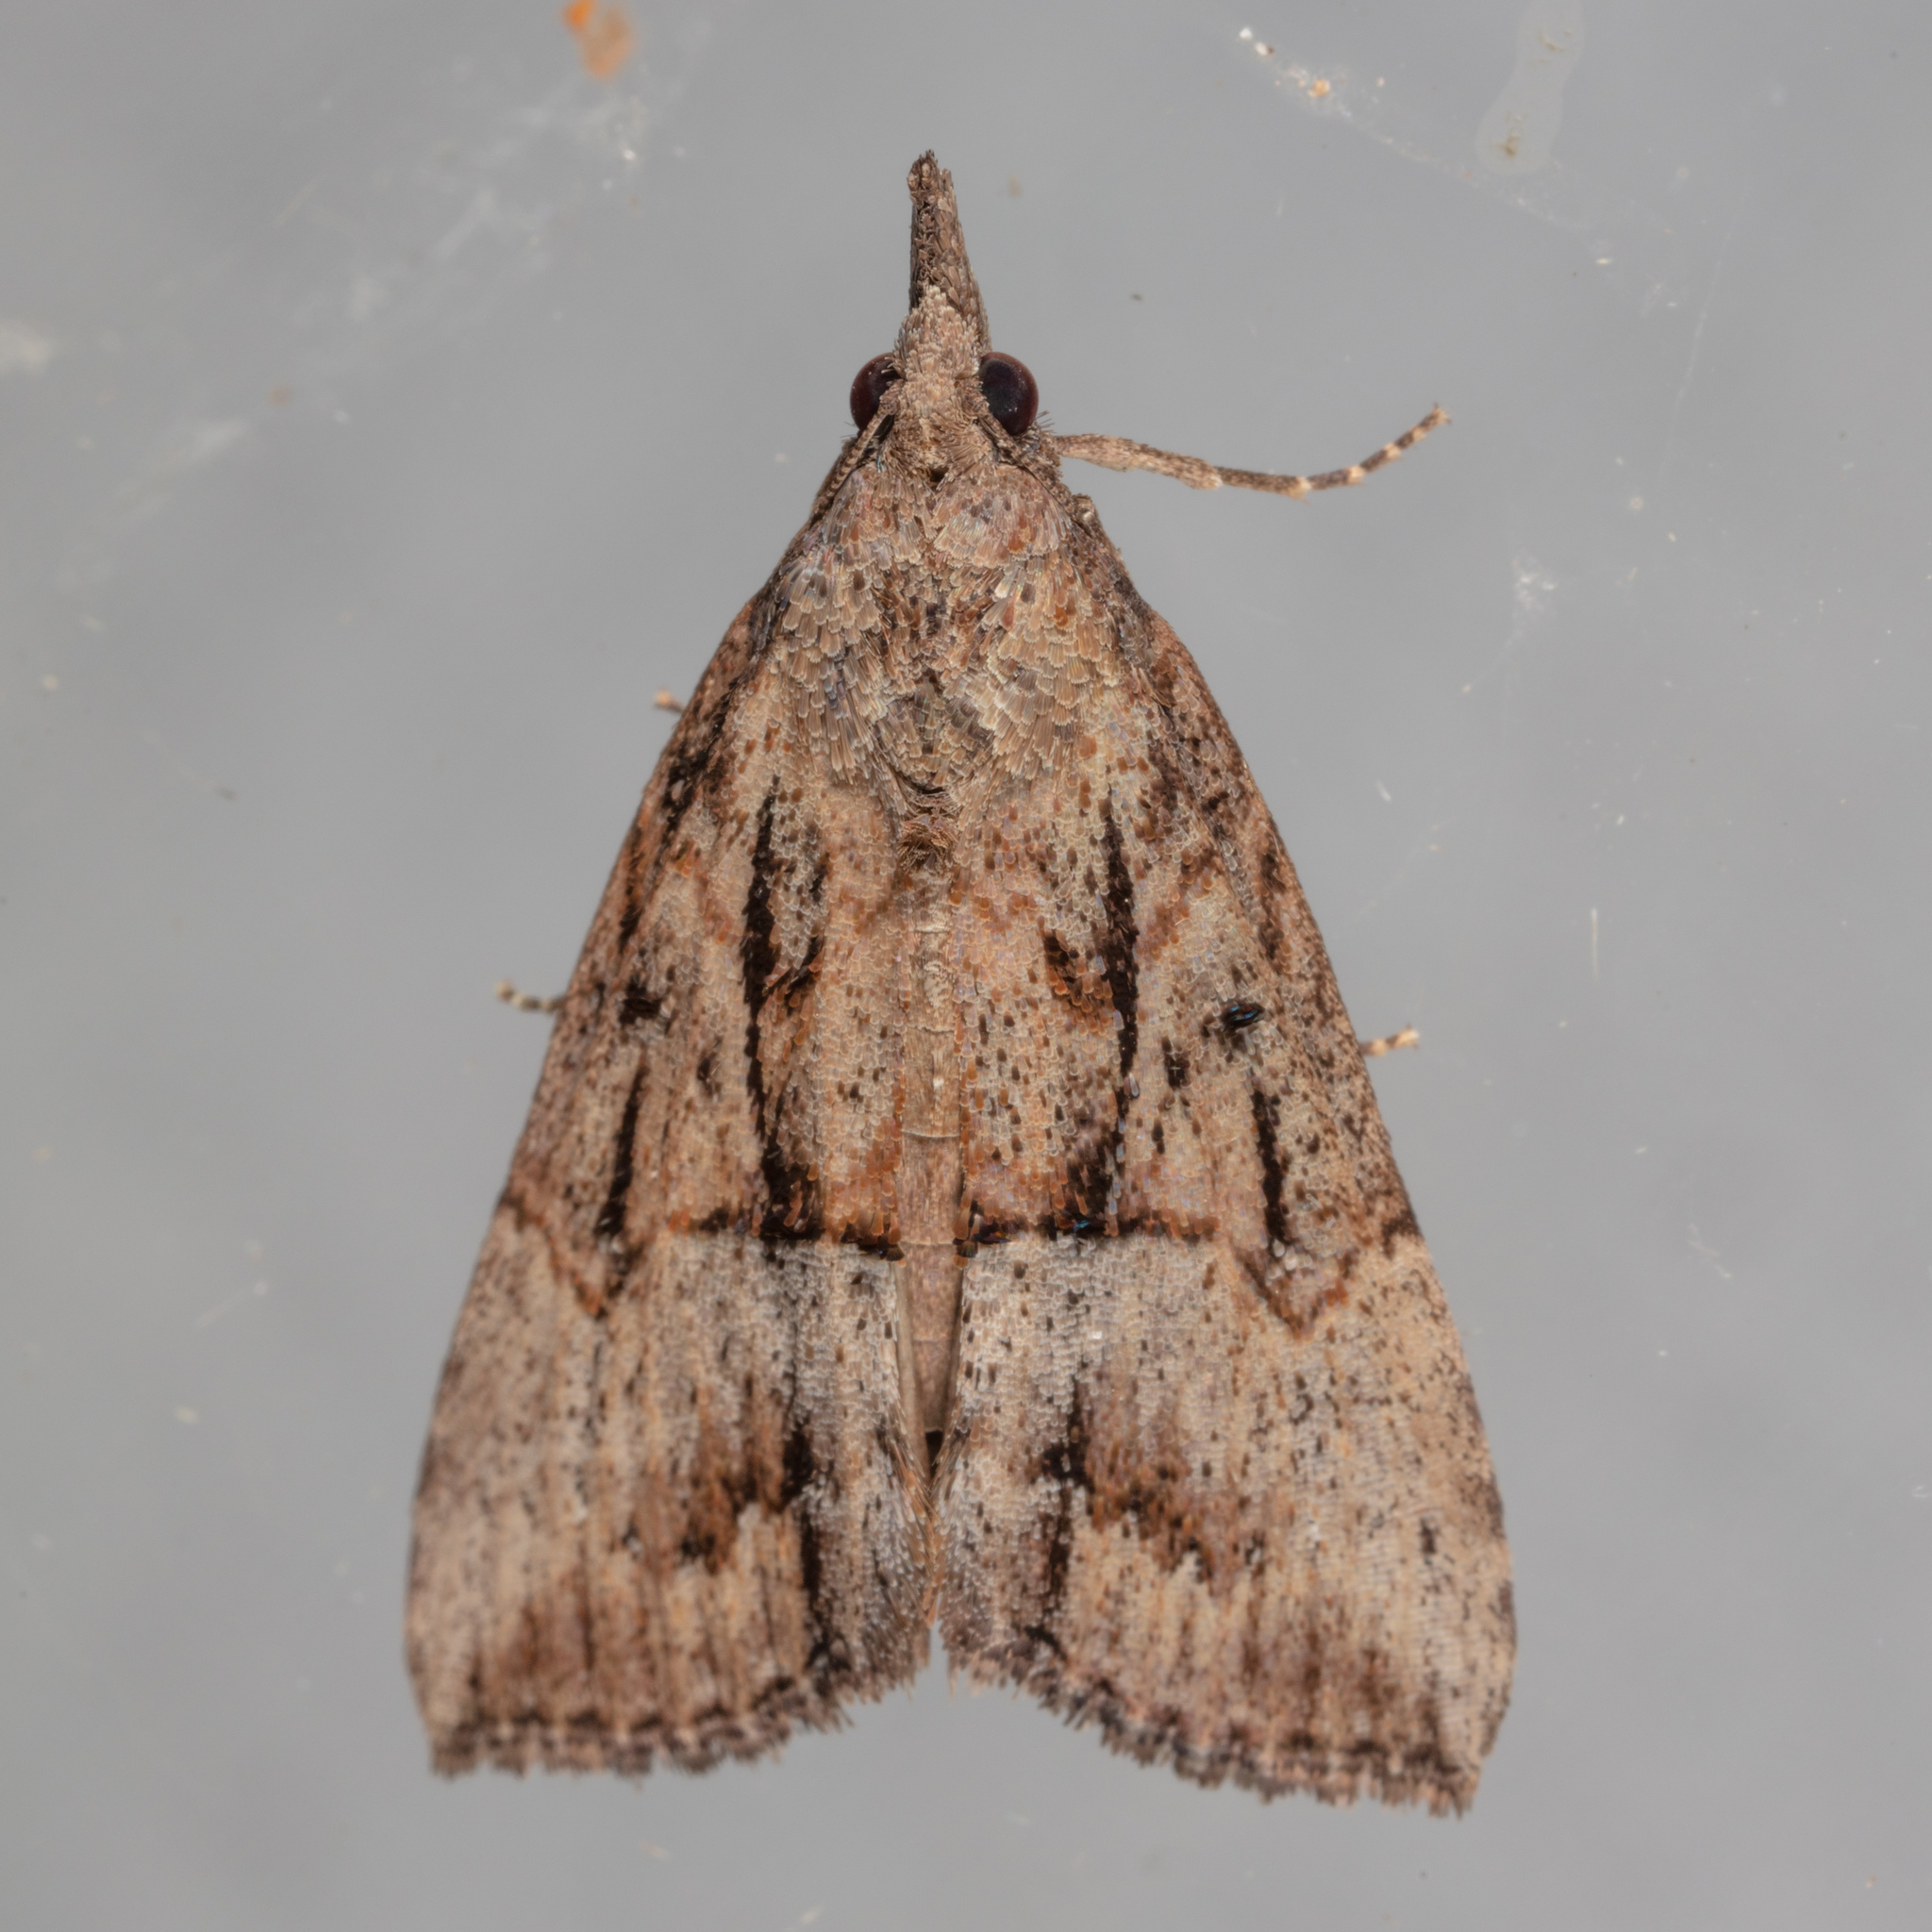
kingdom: Animalia
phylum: Arthropoda
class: Insecta
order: Lepidoptera
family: Erebidae
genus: Hypena
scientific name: Hypena scabra
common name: Green cloverworm
